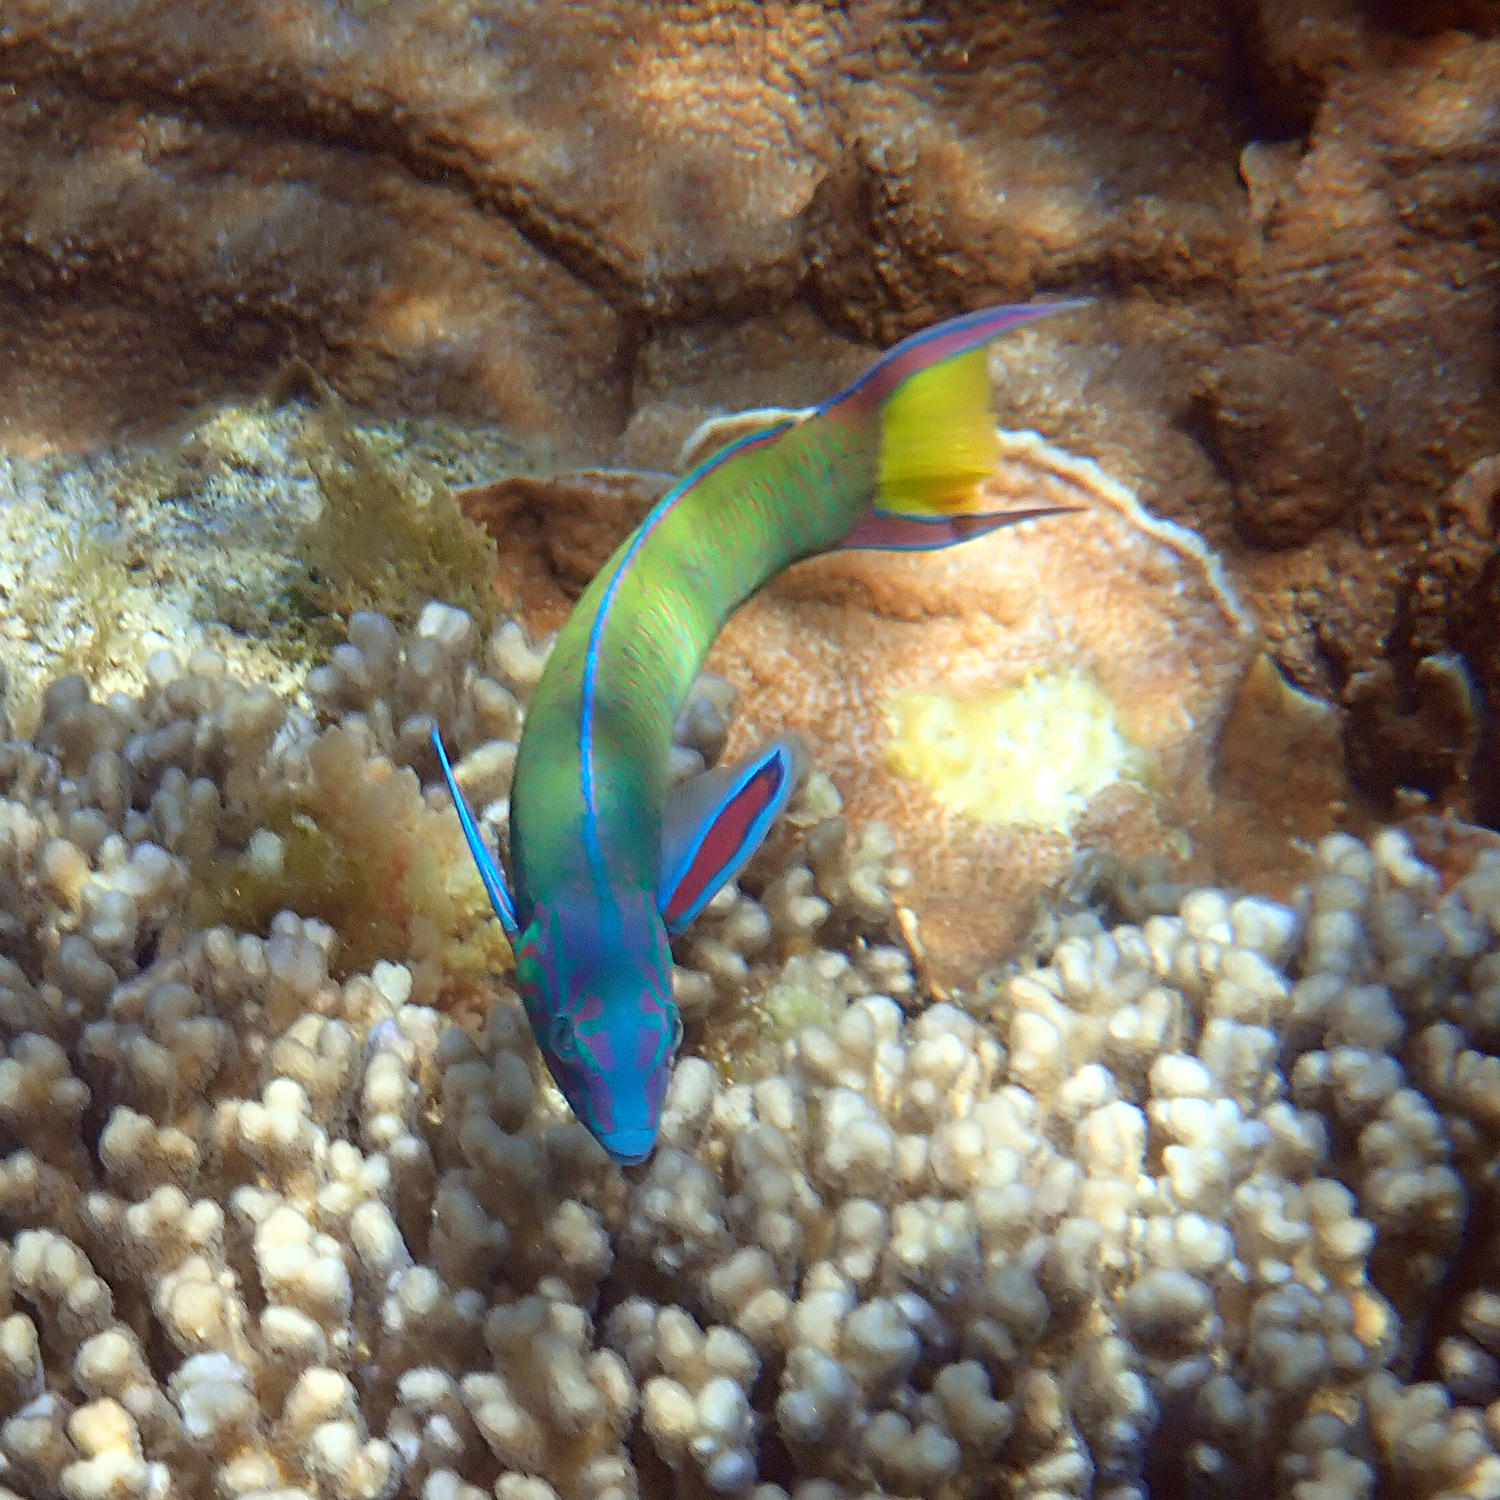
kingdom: Animalia
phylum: Chordata
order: Perciformes
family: Labridae
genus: Thalassoma
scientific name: Thalassoma lunare
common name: Blue wrasse
